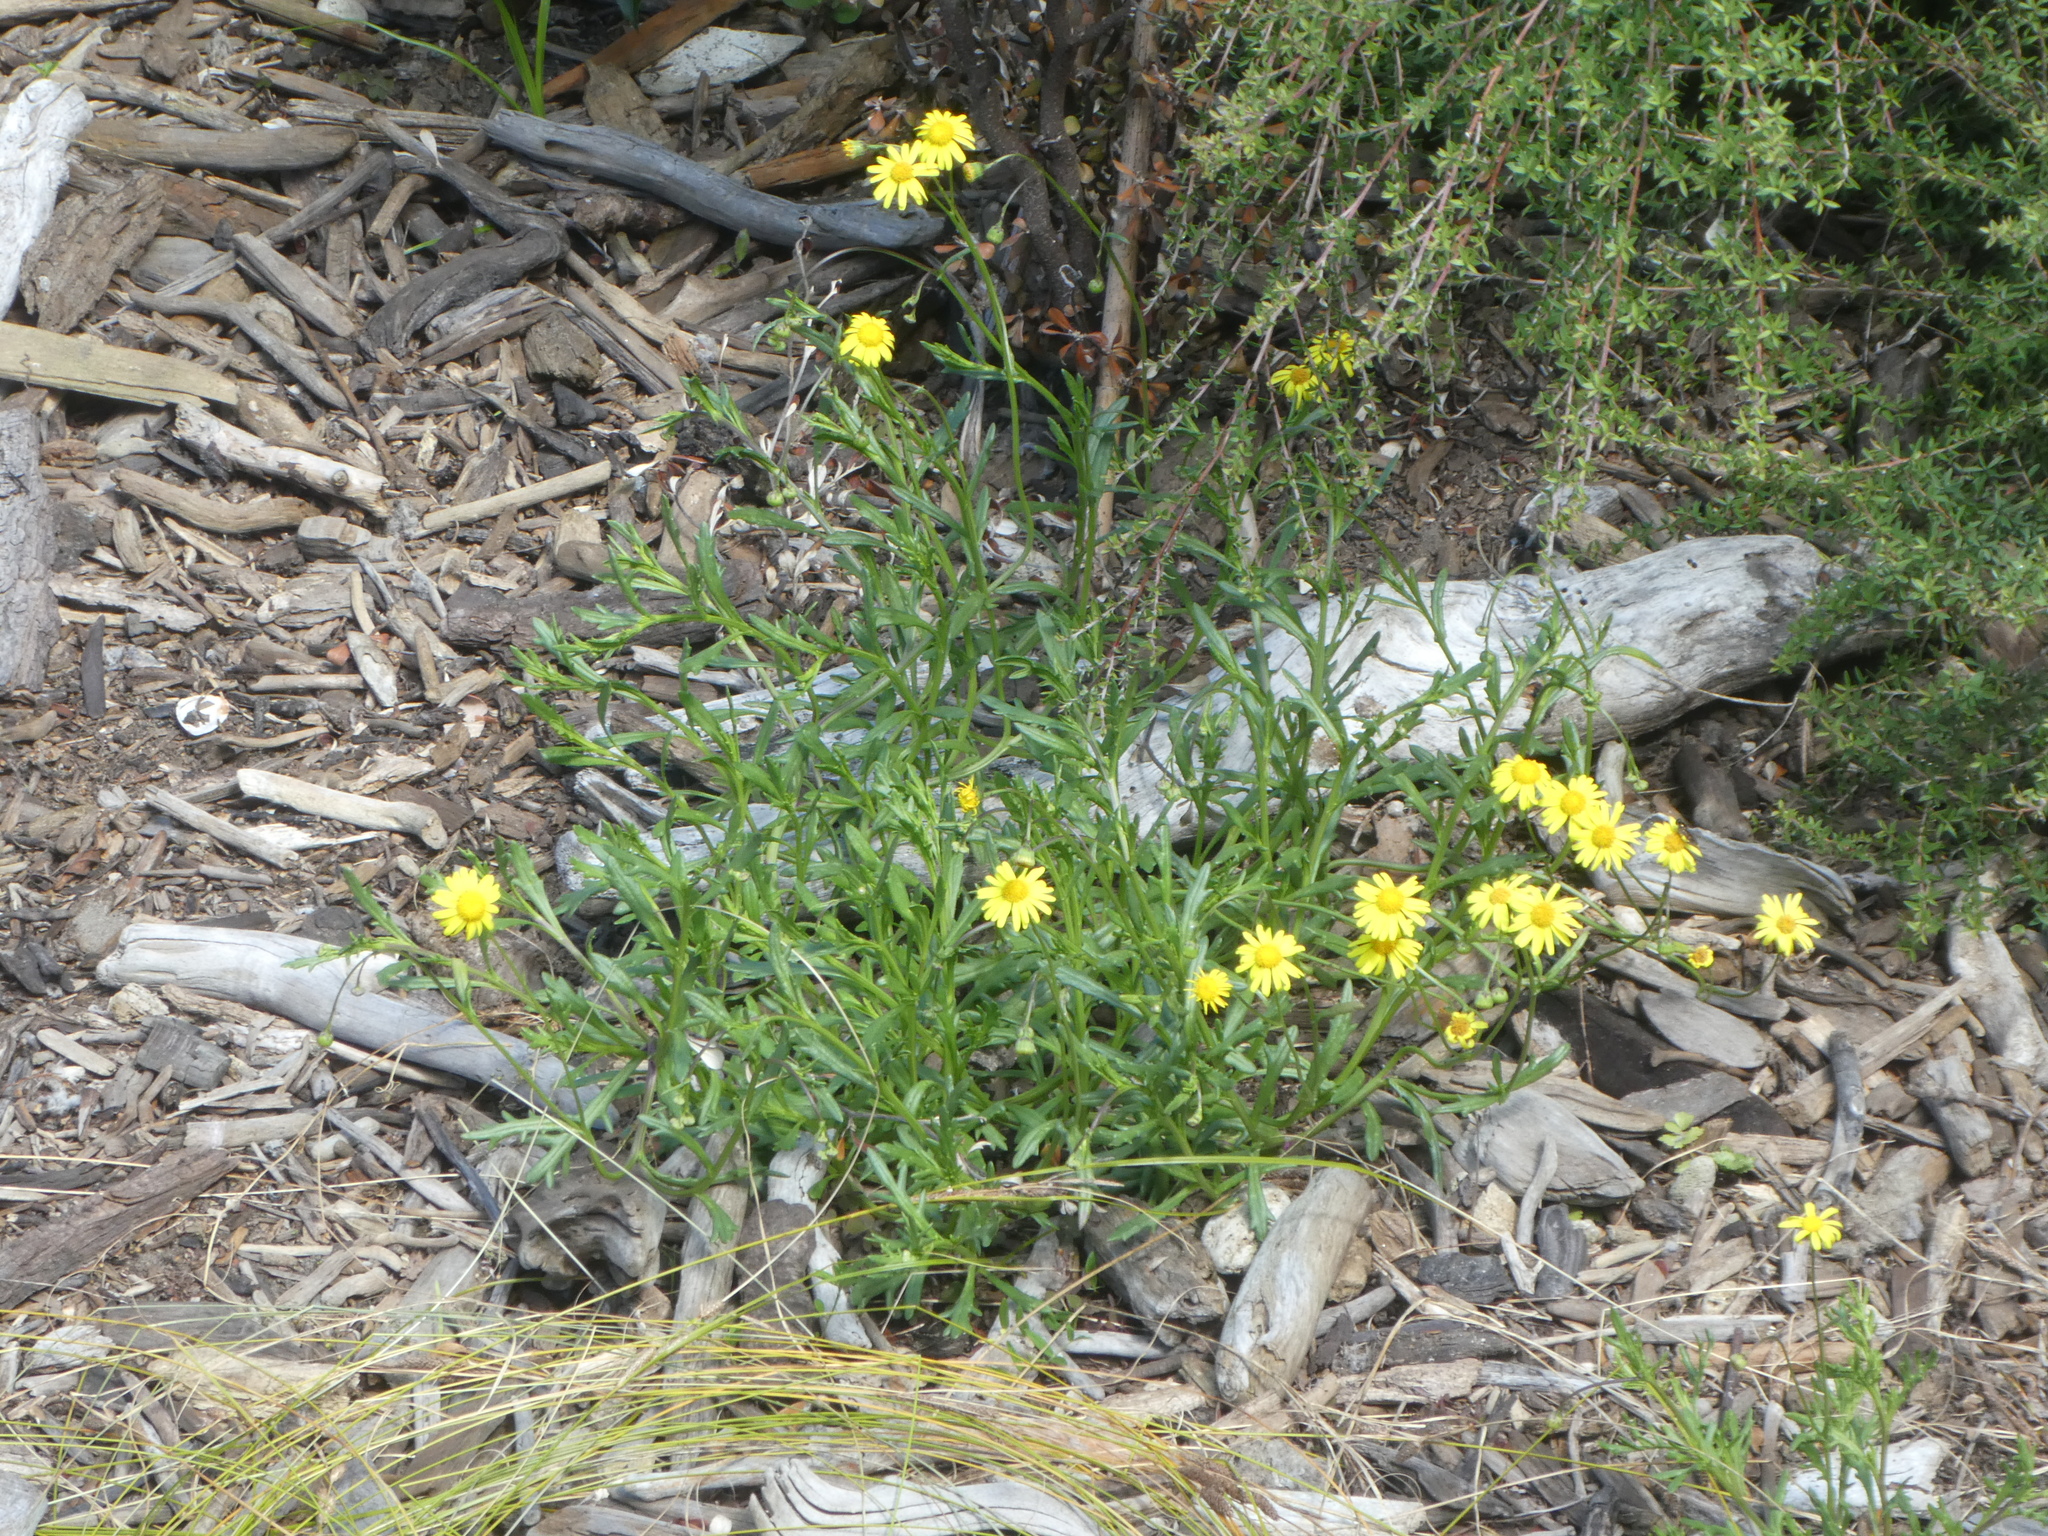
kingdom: Plantae
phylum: Tracheophyta
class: Magnoliopsida
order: Asterales
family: Asteraceae
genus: Senecio
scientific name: Senecio skirrhodon
